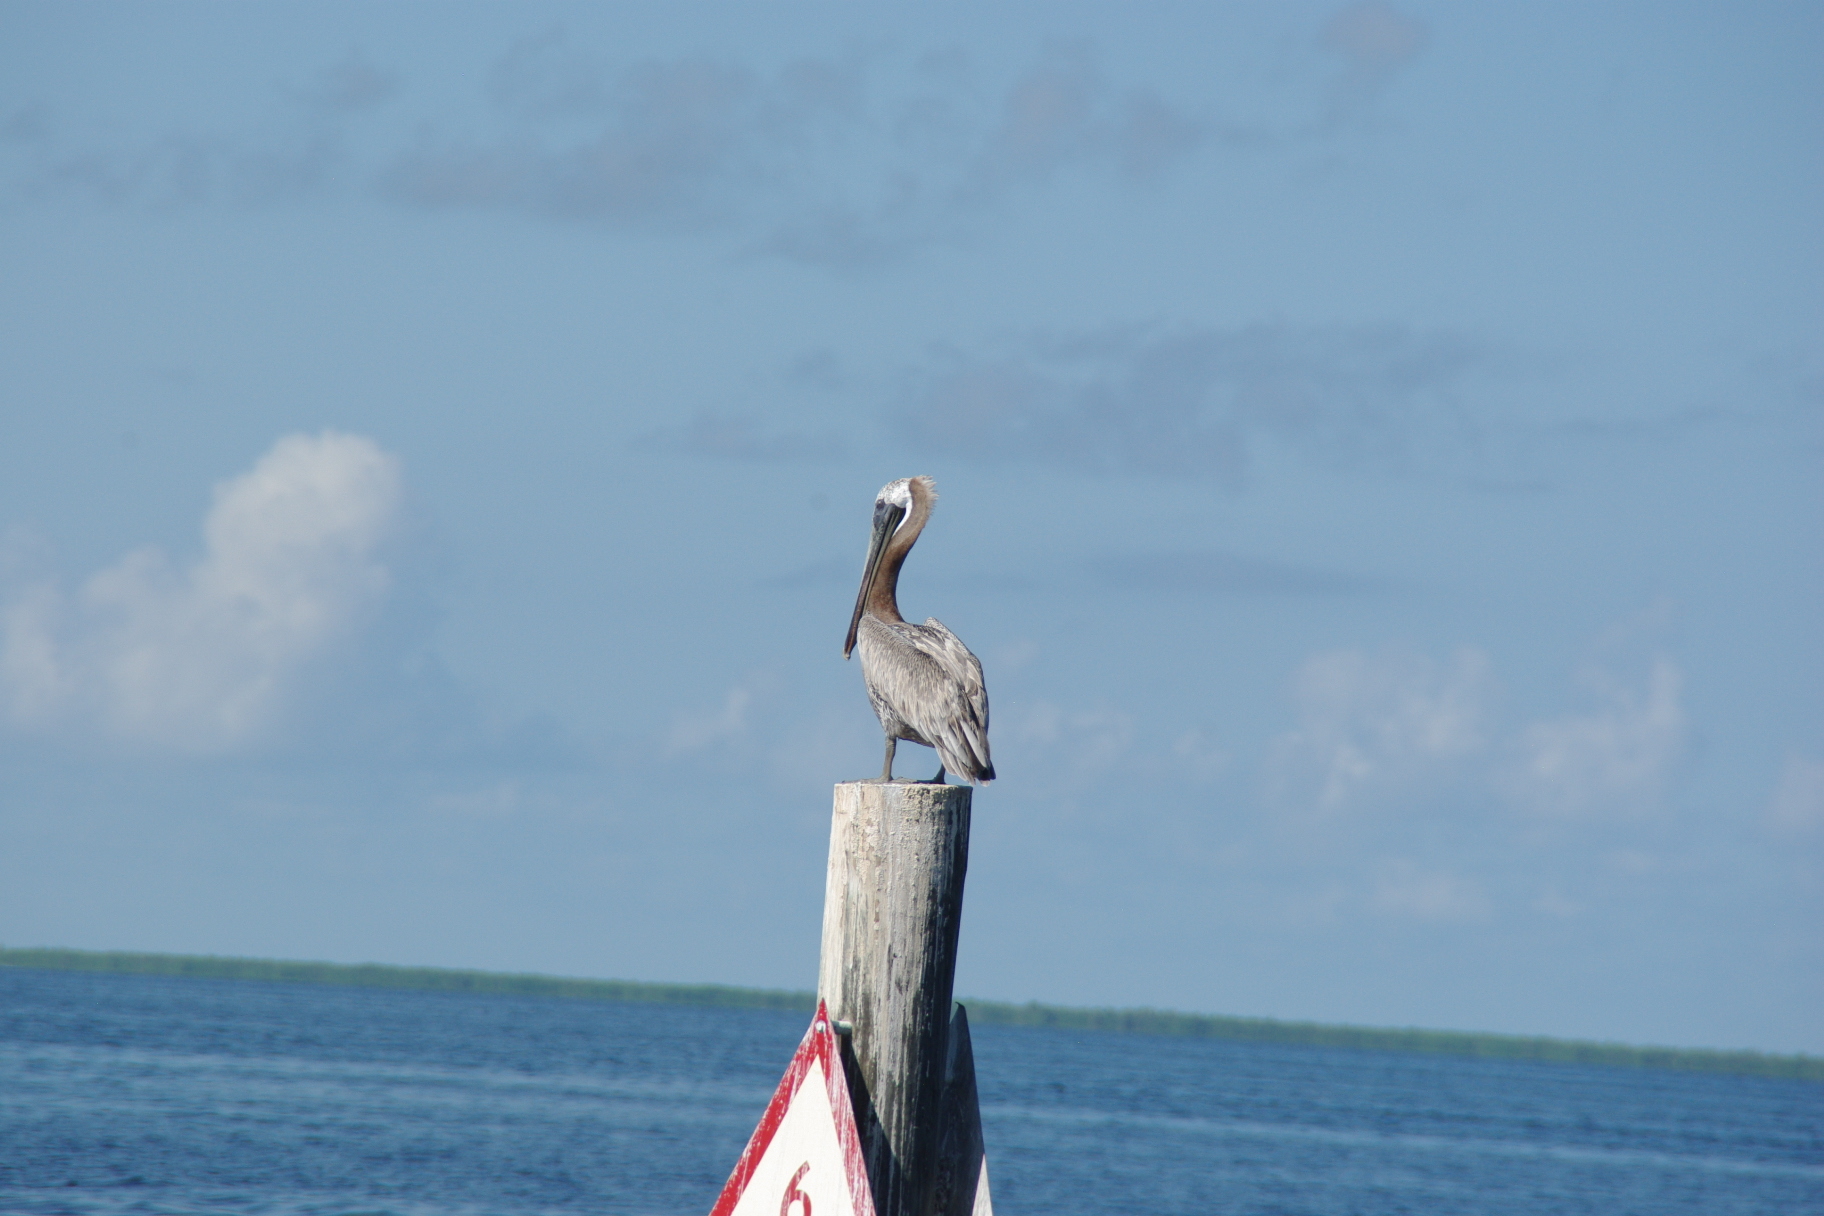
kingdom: Animalia
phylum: Chordata
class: Aves
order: Pelecaniformes
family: Pelecanidae
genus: Pelecanus
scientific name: Pelecanus occidentalis
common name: Brown pelican
